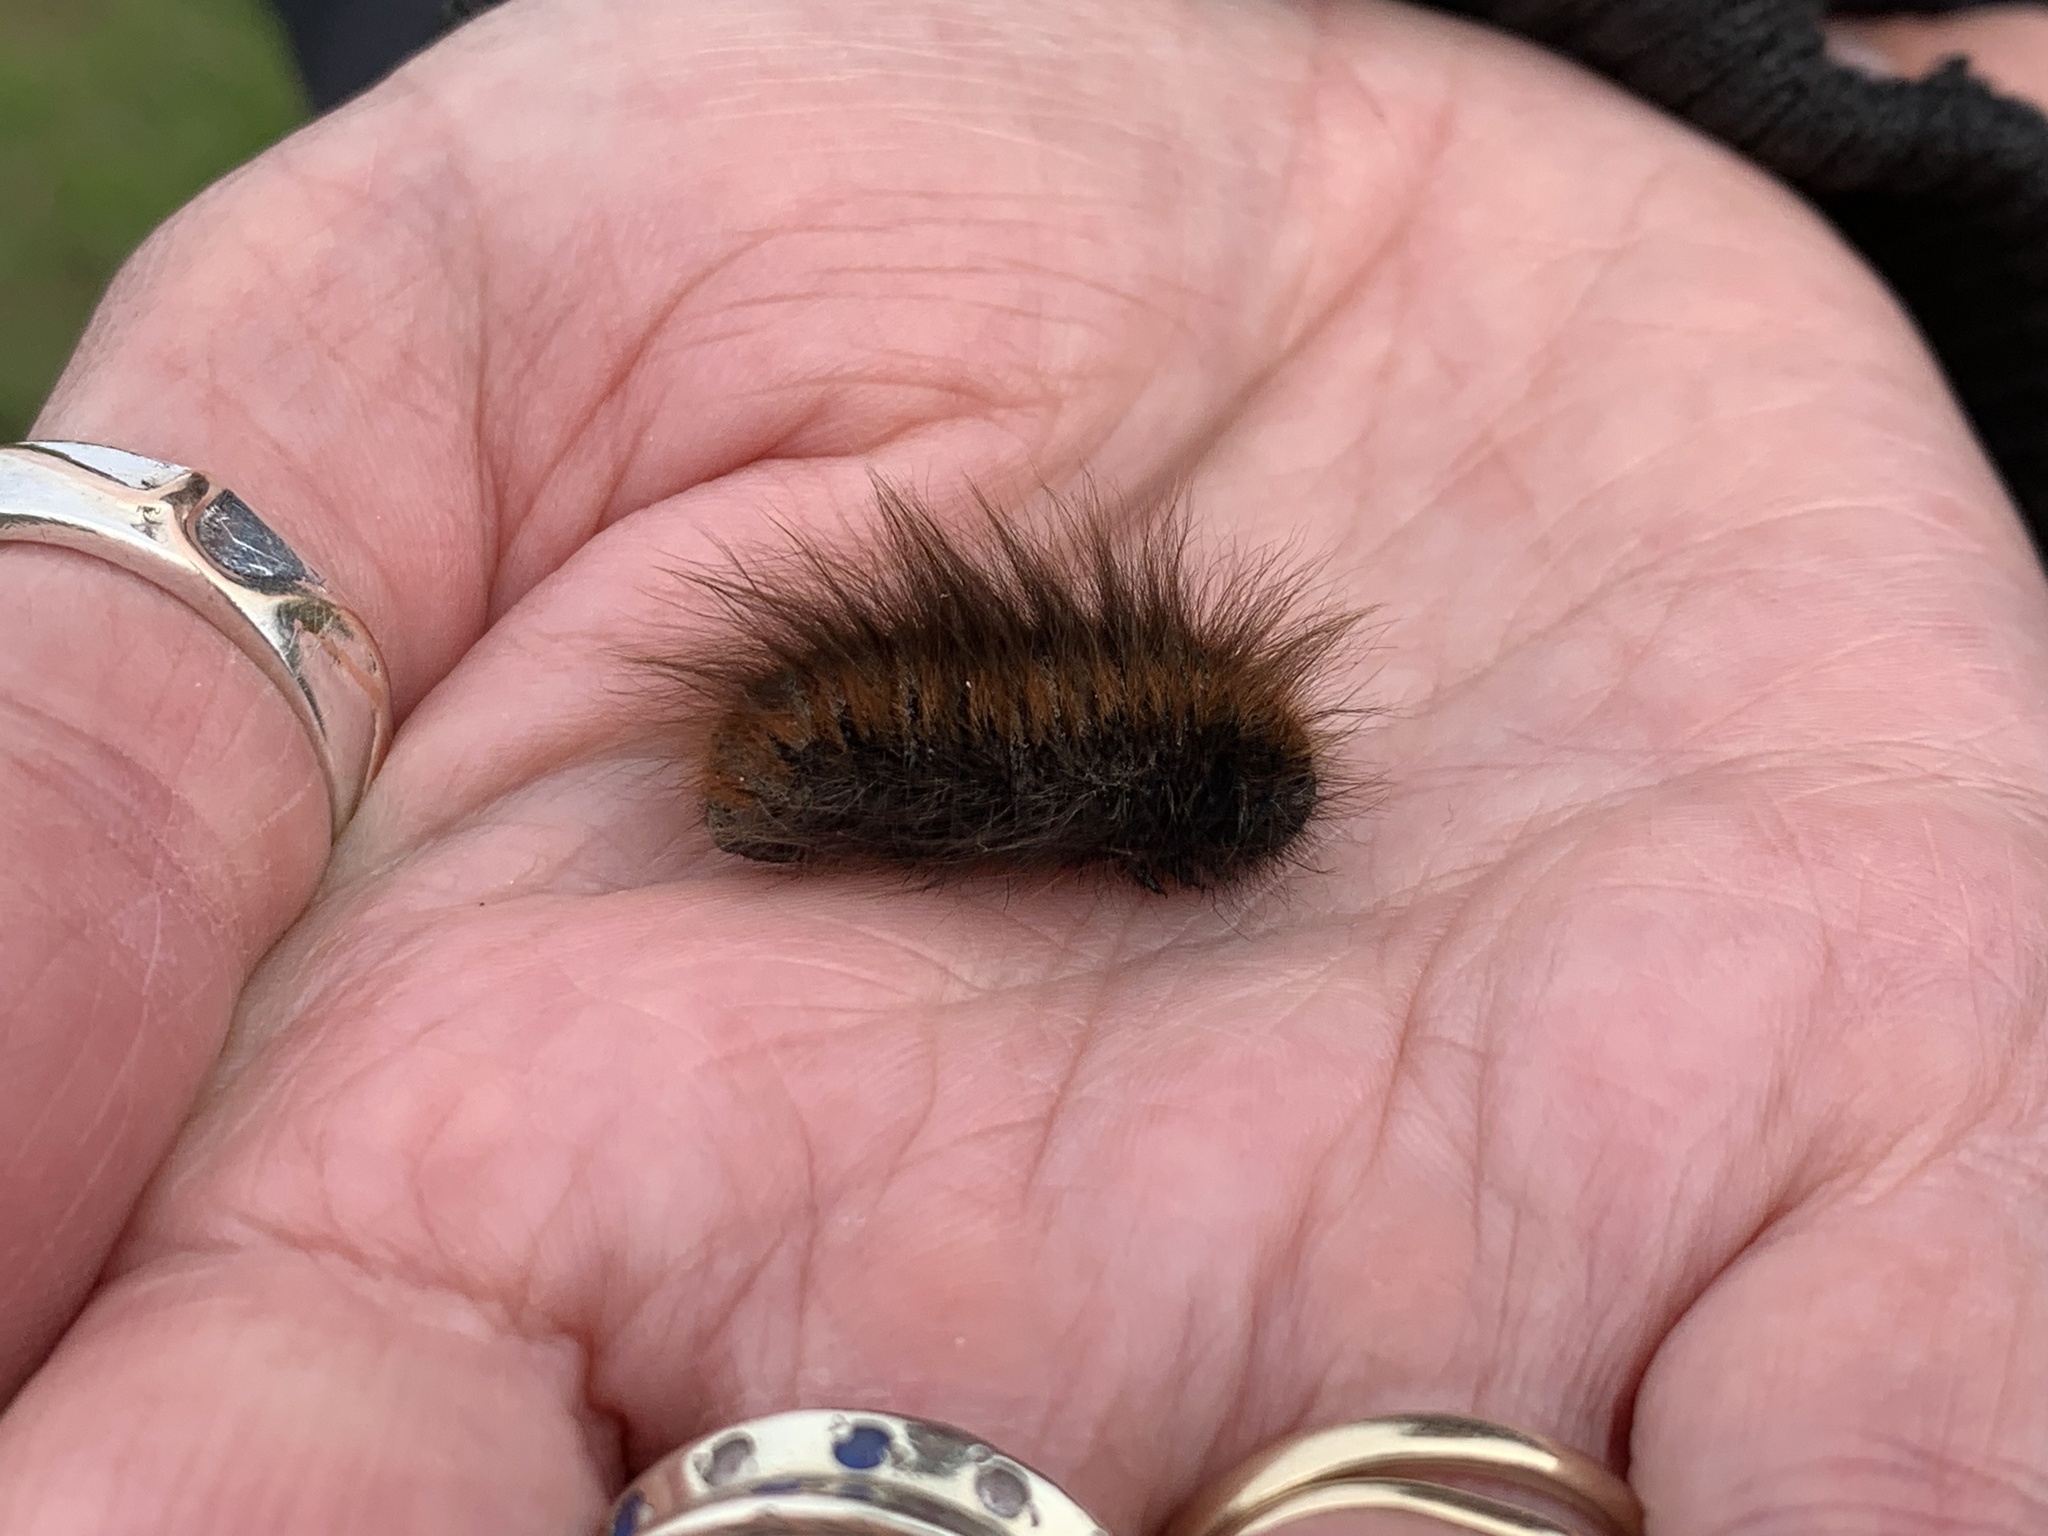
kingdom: Animalia
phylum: Arthropoda
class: Insecta
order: Lepidoptera
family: Lasiocampidae
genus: Macrothylacia
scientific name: Macrothylacia rubi
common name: Fox moth
